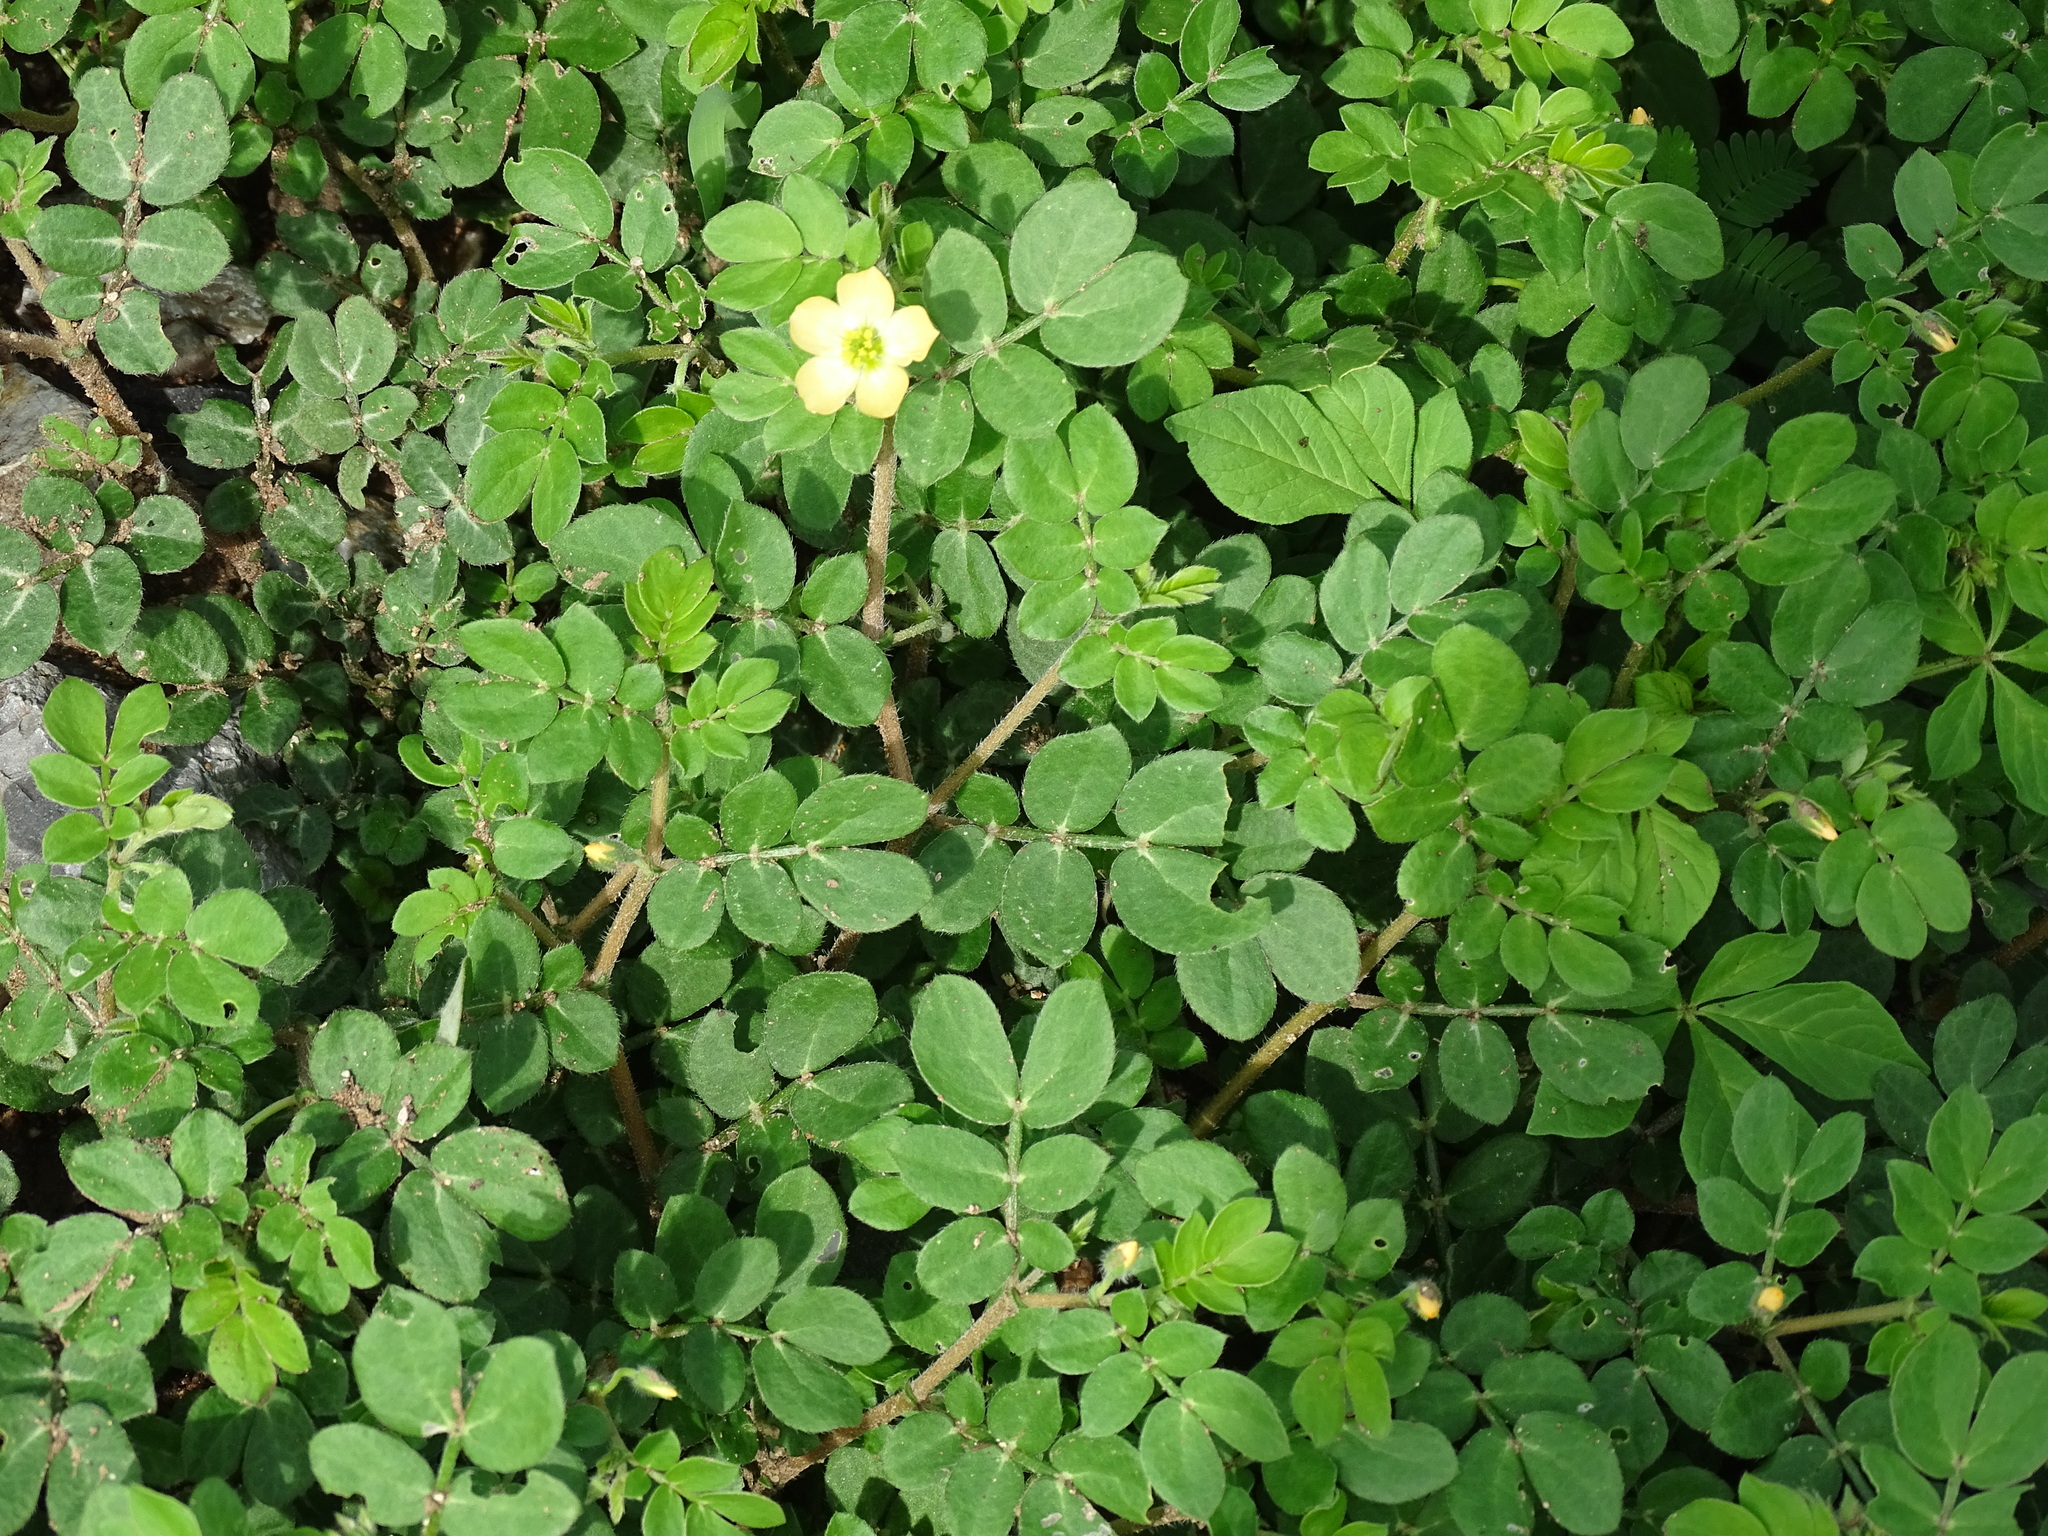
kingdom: Plantae
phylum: Tracheophyta
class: Magnoliopsida
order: Zygophyllales
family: Zygophyllaceae
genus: Kallstroemia
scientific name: Kallstroemia maxima
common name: Big caltropa
